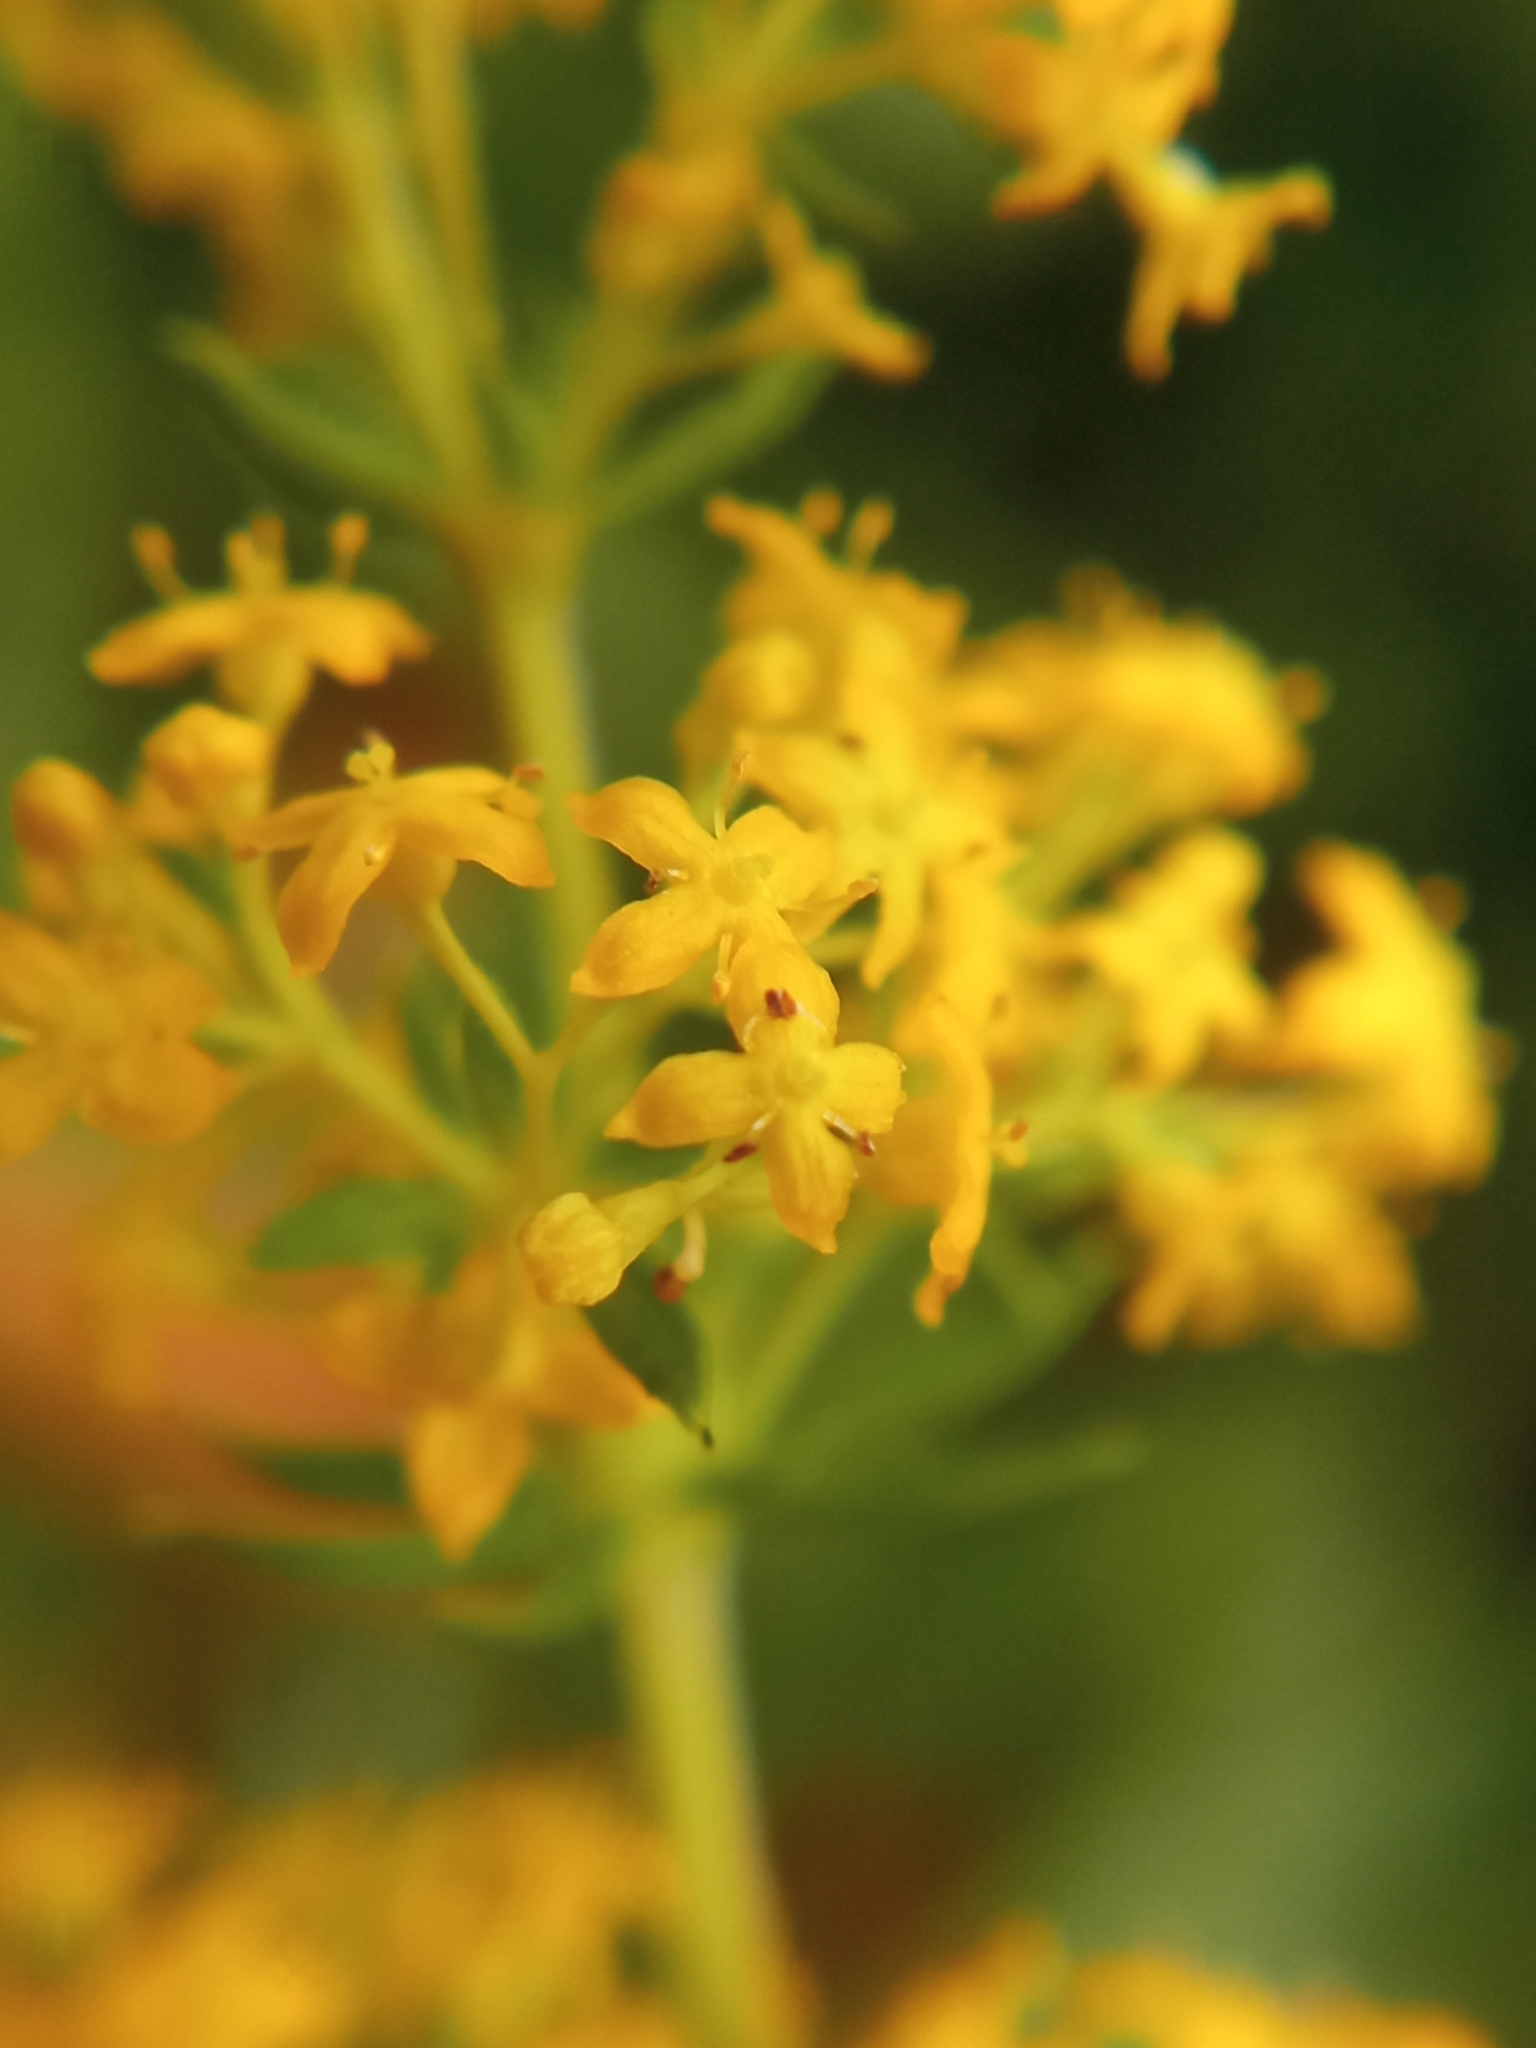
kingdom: Plantae
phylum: Tracheophyta
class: Magnoliopsida
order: Gentianales
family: Rubiaceae
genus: Galium
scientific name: Galium verum
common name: Lady's bedstraw
